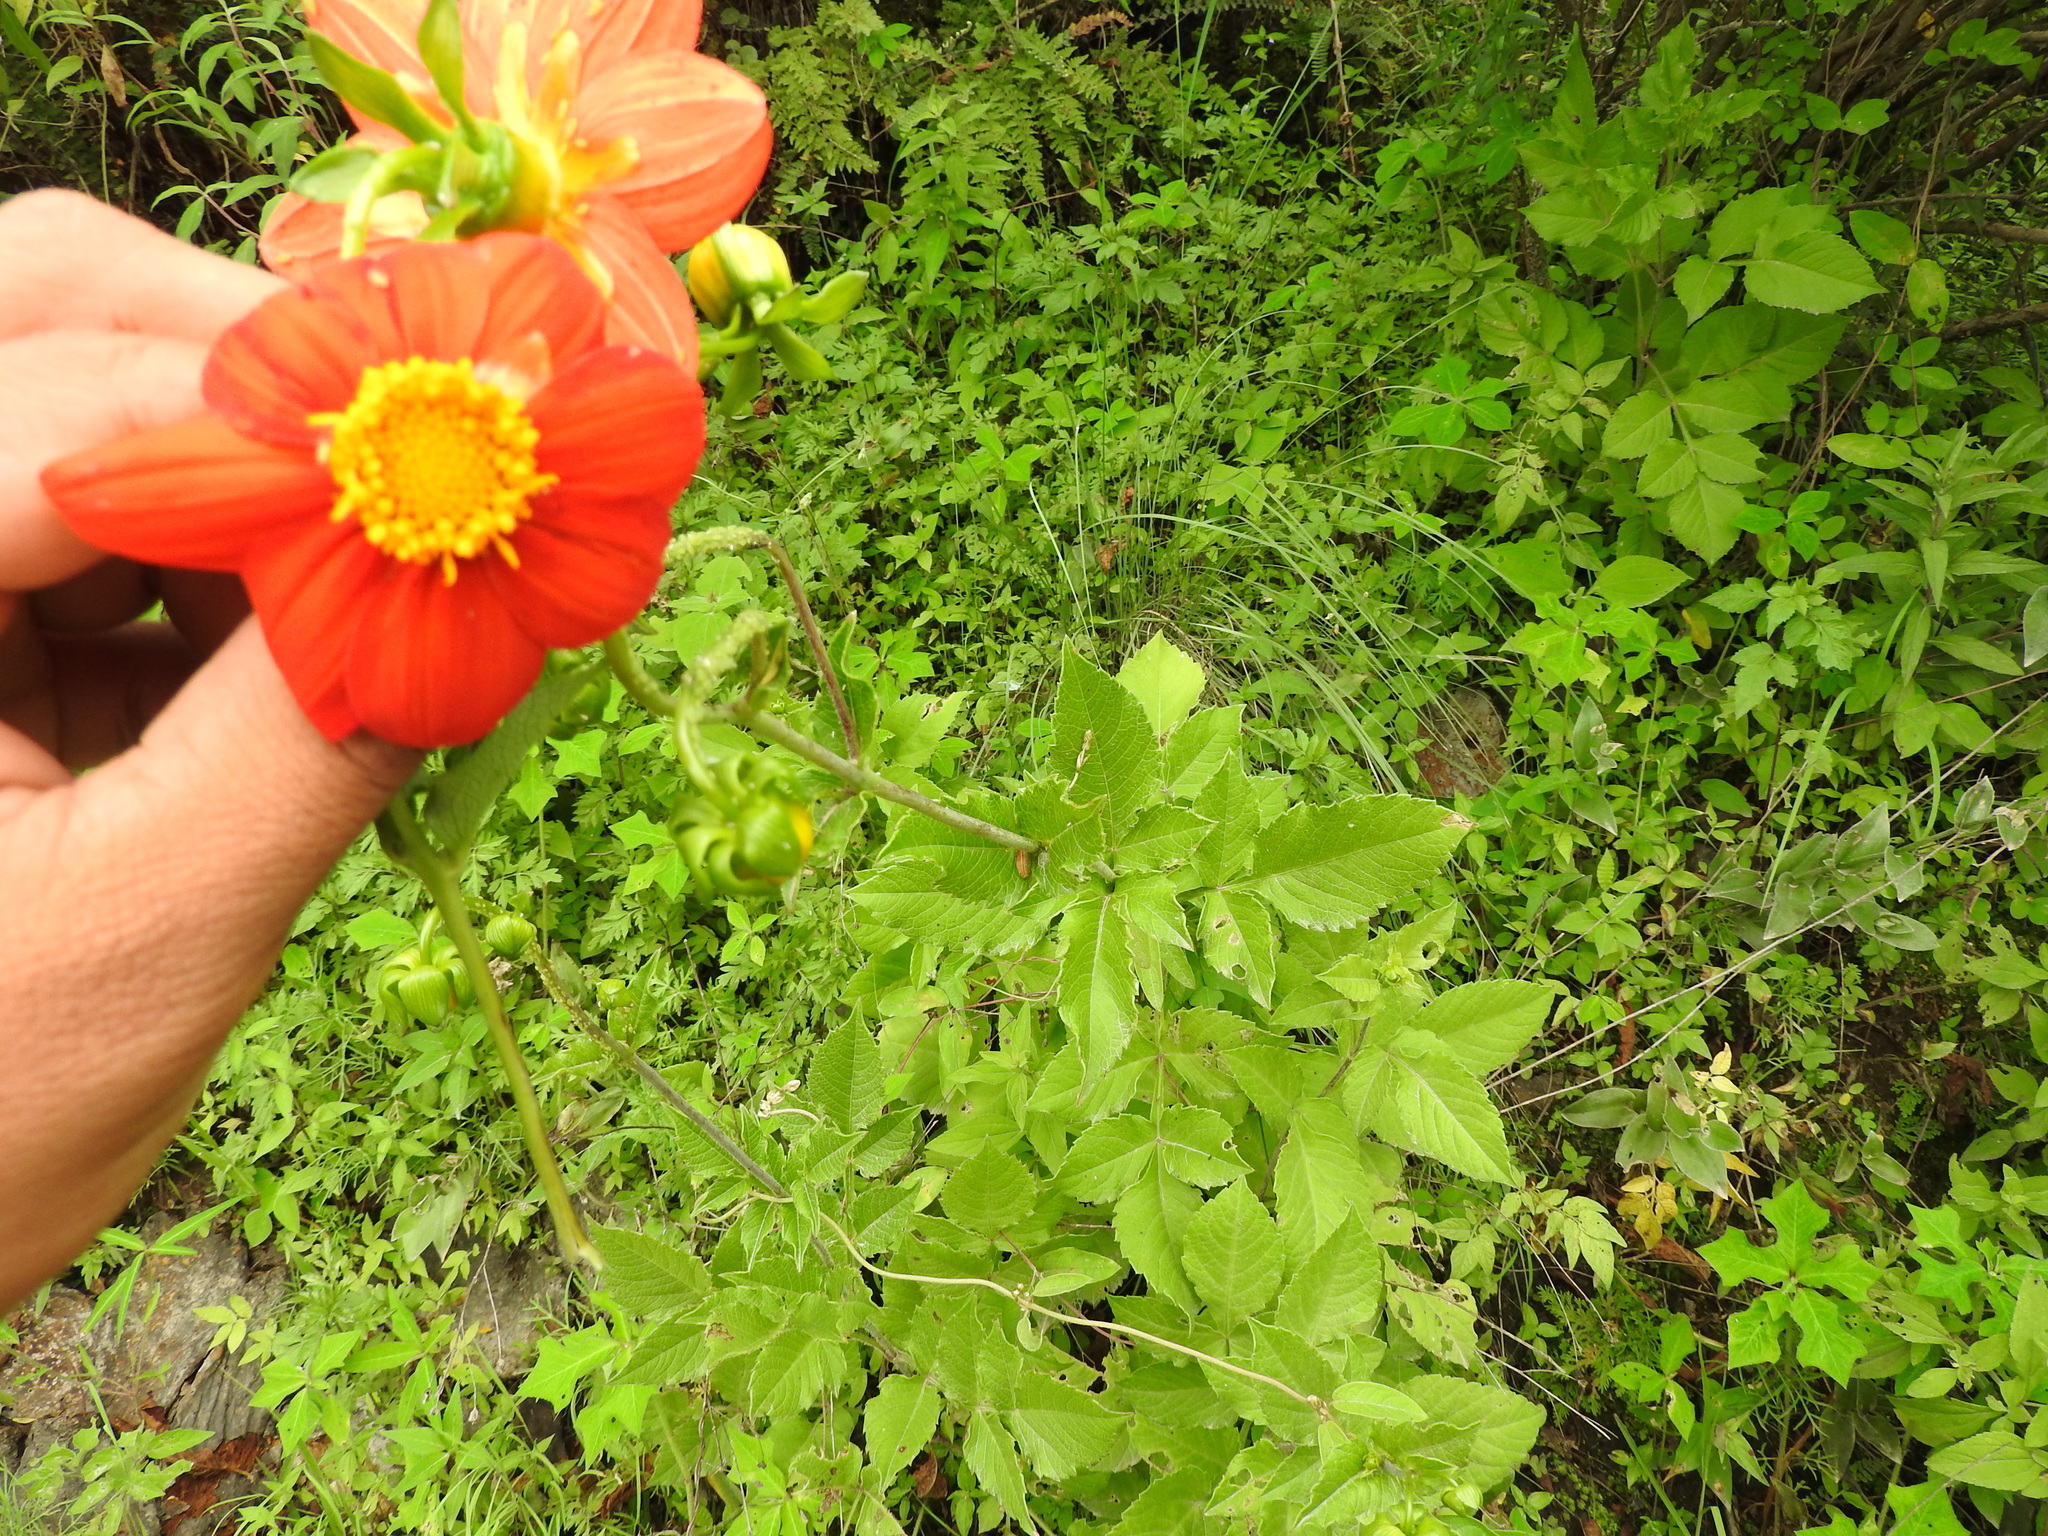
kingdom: Plantae
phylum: Tracheophyta
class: Magnoliopsida
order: Asterales
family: Asteraceae
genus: Dahlia
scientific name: Dahlia coccinea
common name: Red dahlia
